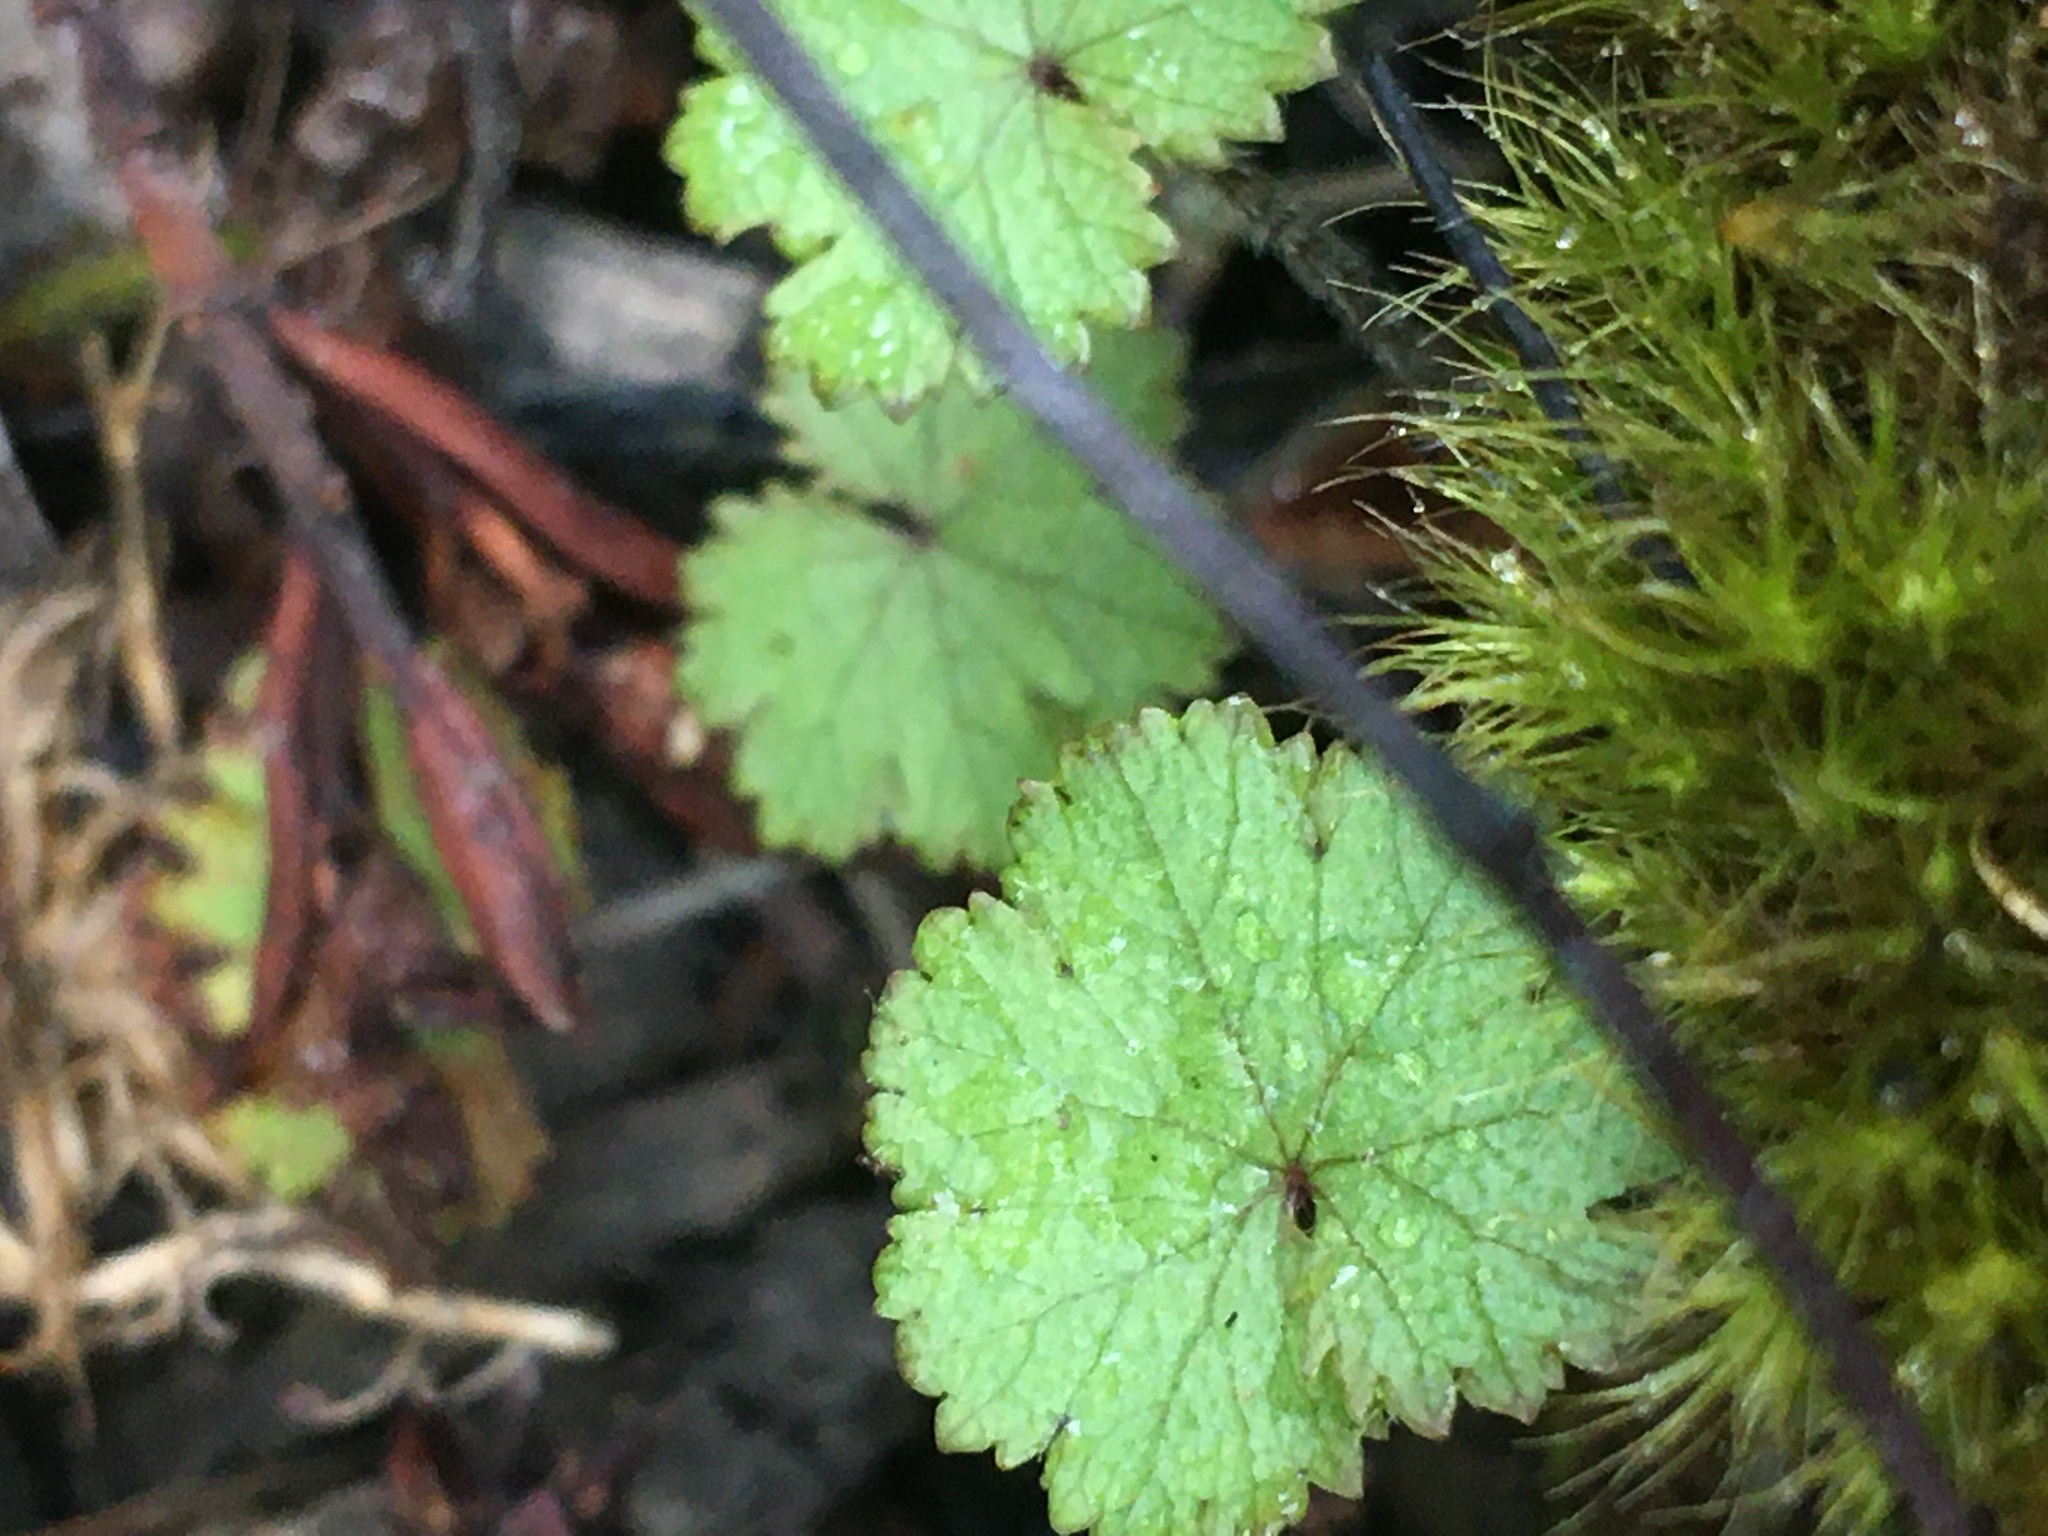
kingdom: Plantae
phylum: Tracheophyta
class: Magnoliopsida
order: Apiales
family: Araliaceae
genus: Hydrocotyle
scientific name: Hydrocotyle moschata
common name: Hairy pennywort
